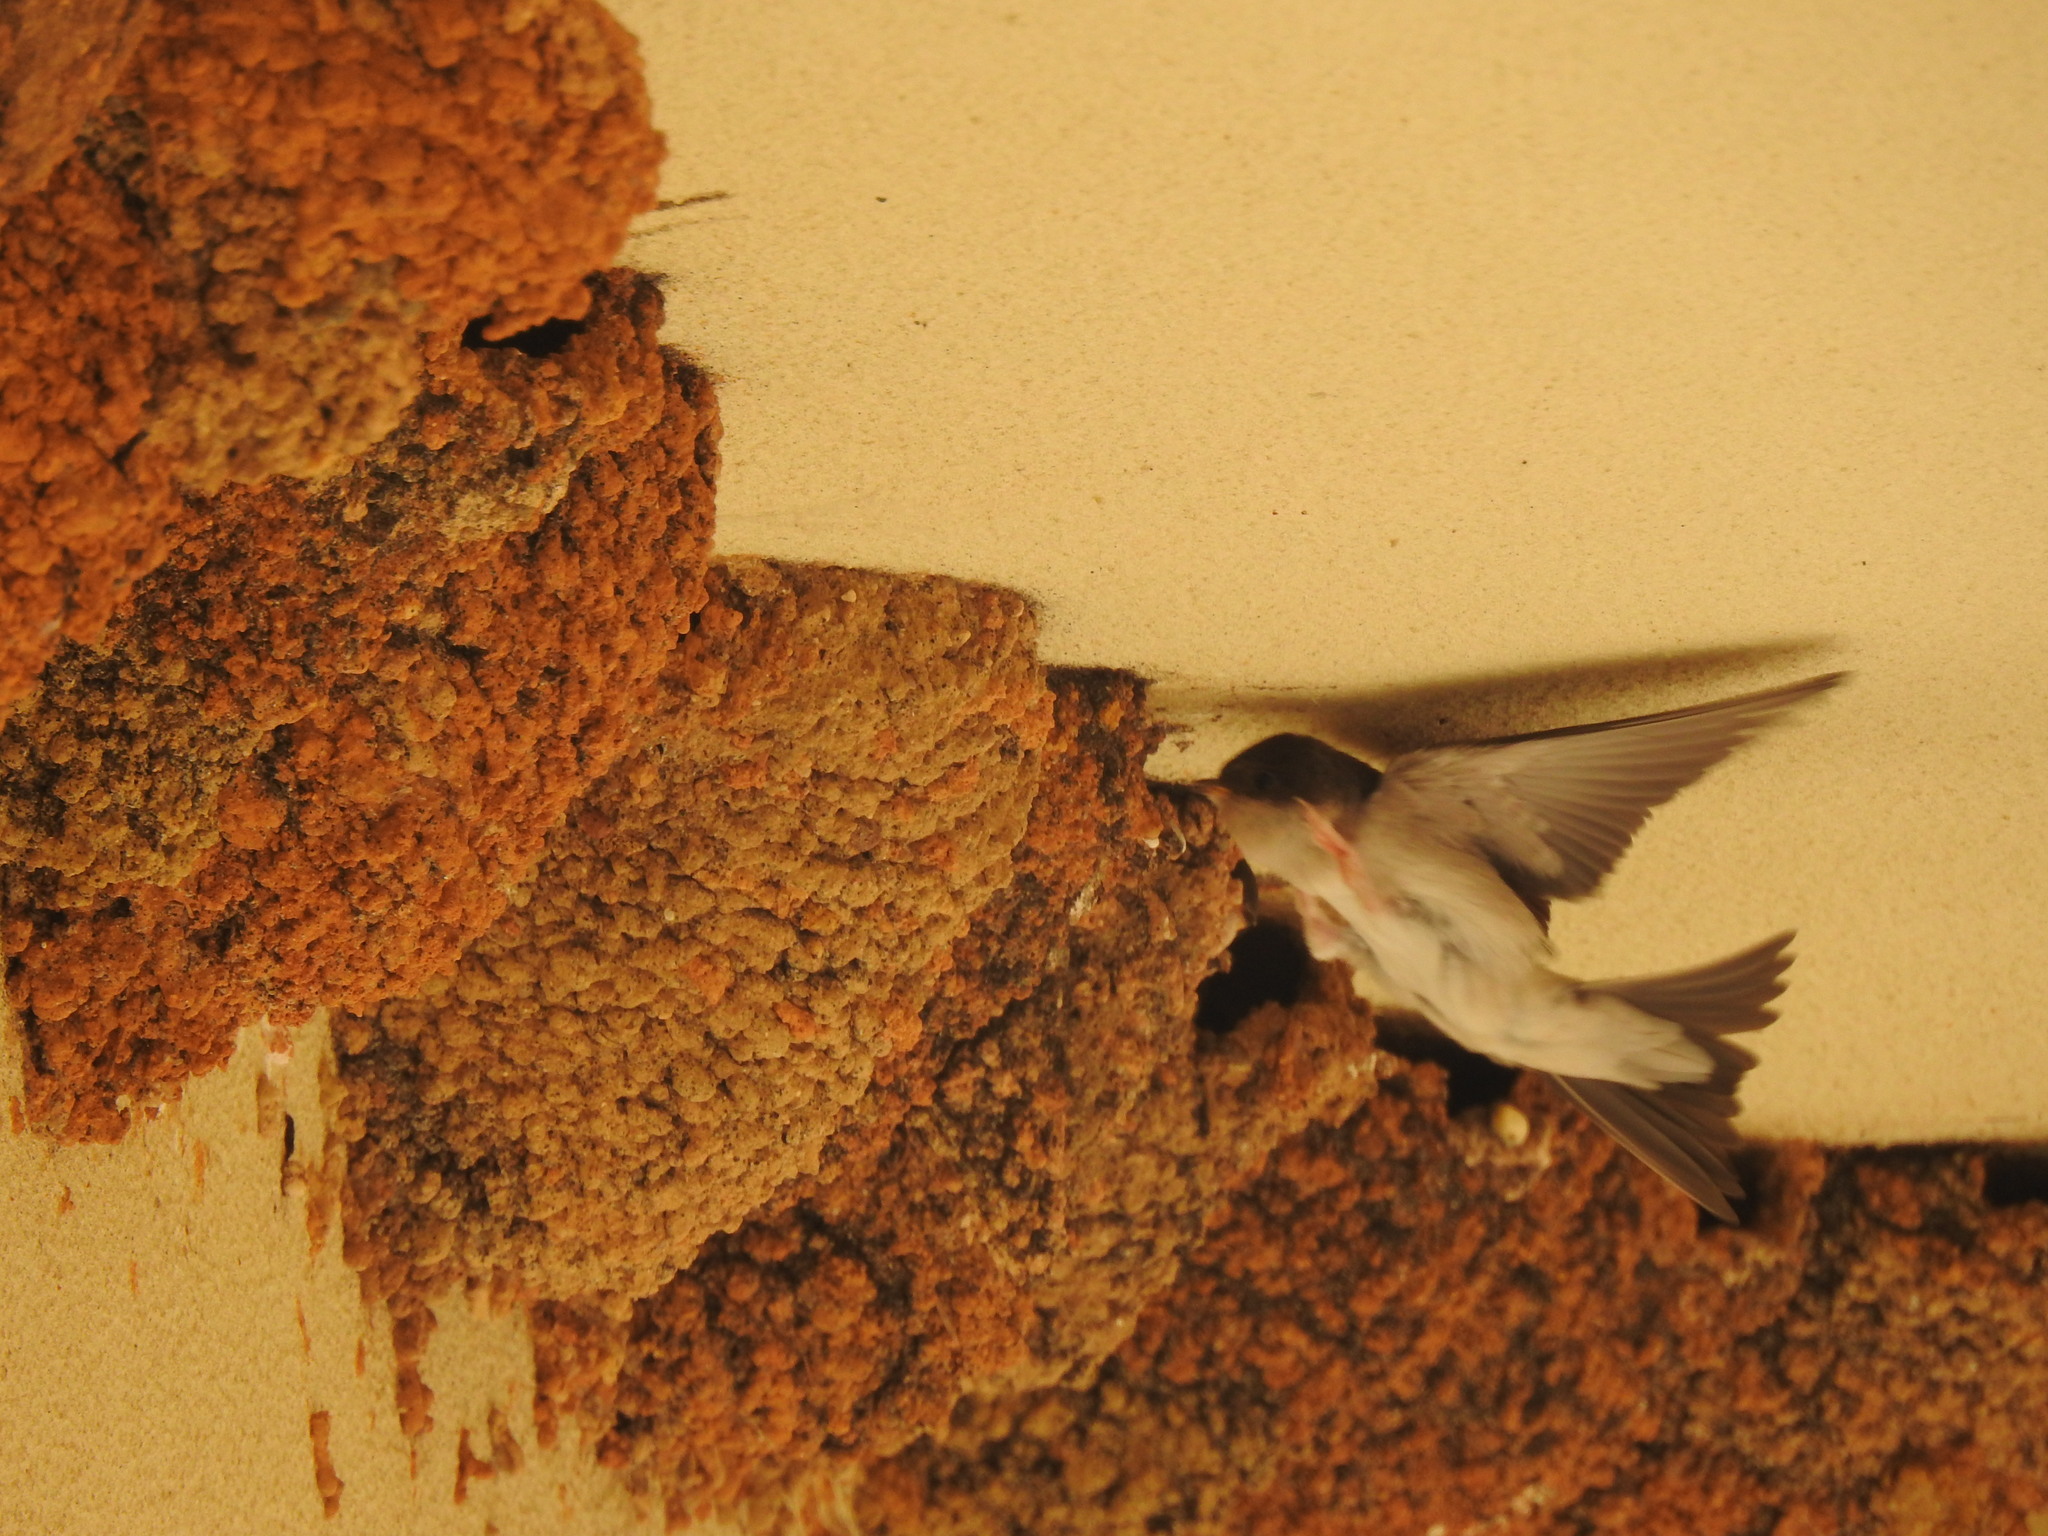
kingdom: Animalia
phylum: Chordata
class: Aves
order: Passeriformes
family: Hirundinidae
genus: Delichon
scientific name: Delichon urbicum
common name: Common house martin
